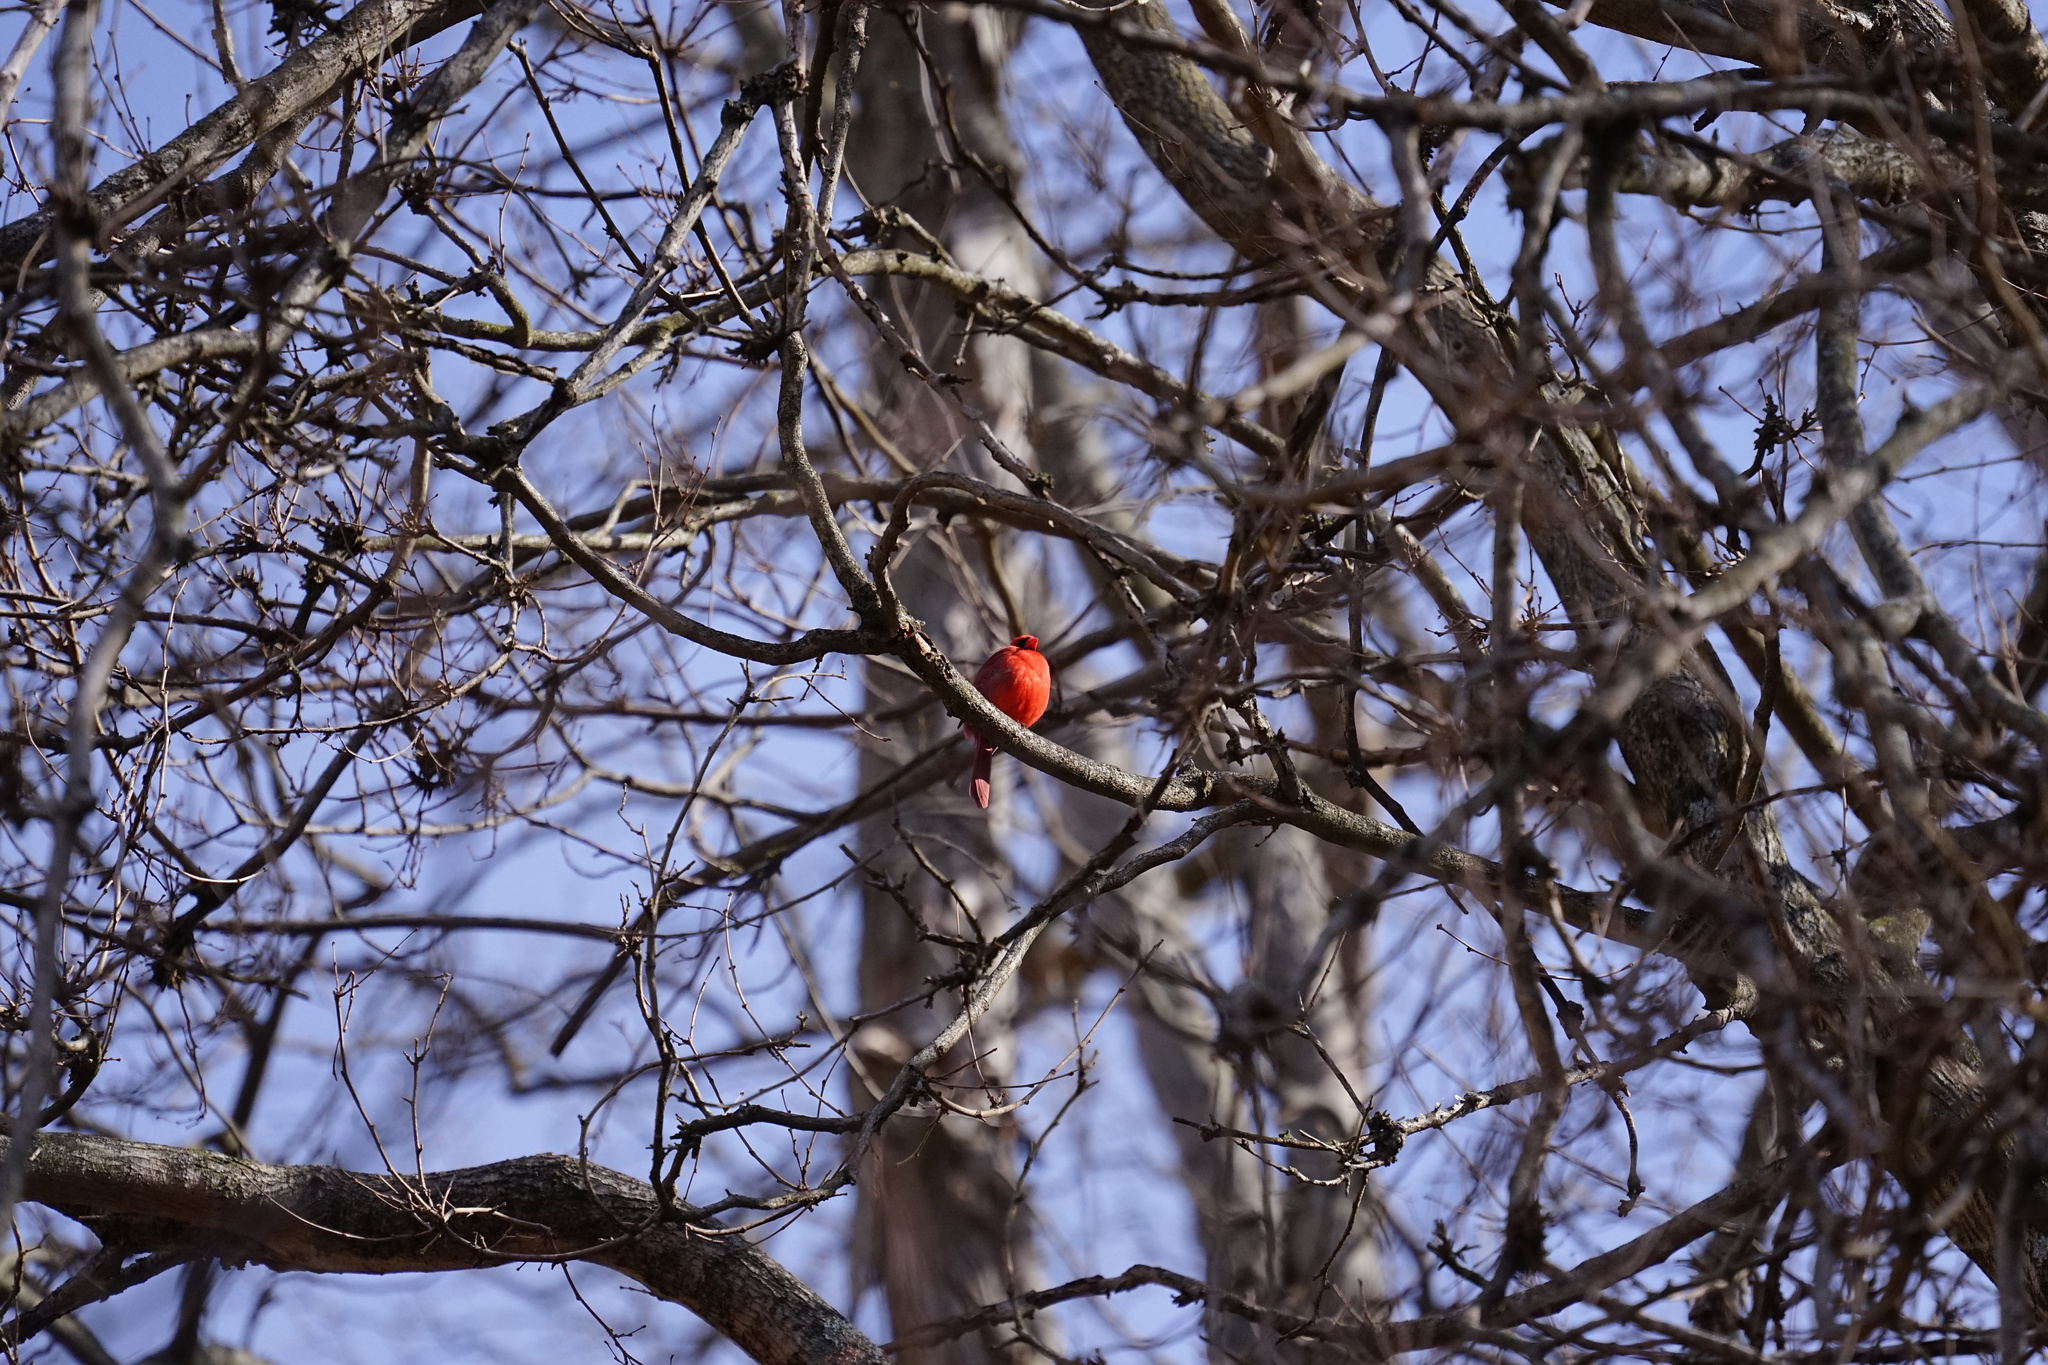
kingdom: Animalia
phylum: Chordata
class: Aves
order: Passeriformes
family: Cardinalidae
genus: Cardinalis
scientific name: Cardinalis cardinalis
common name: Northern cardinal
